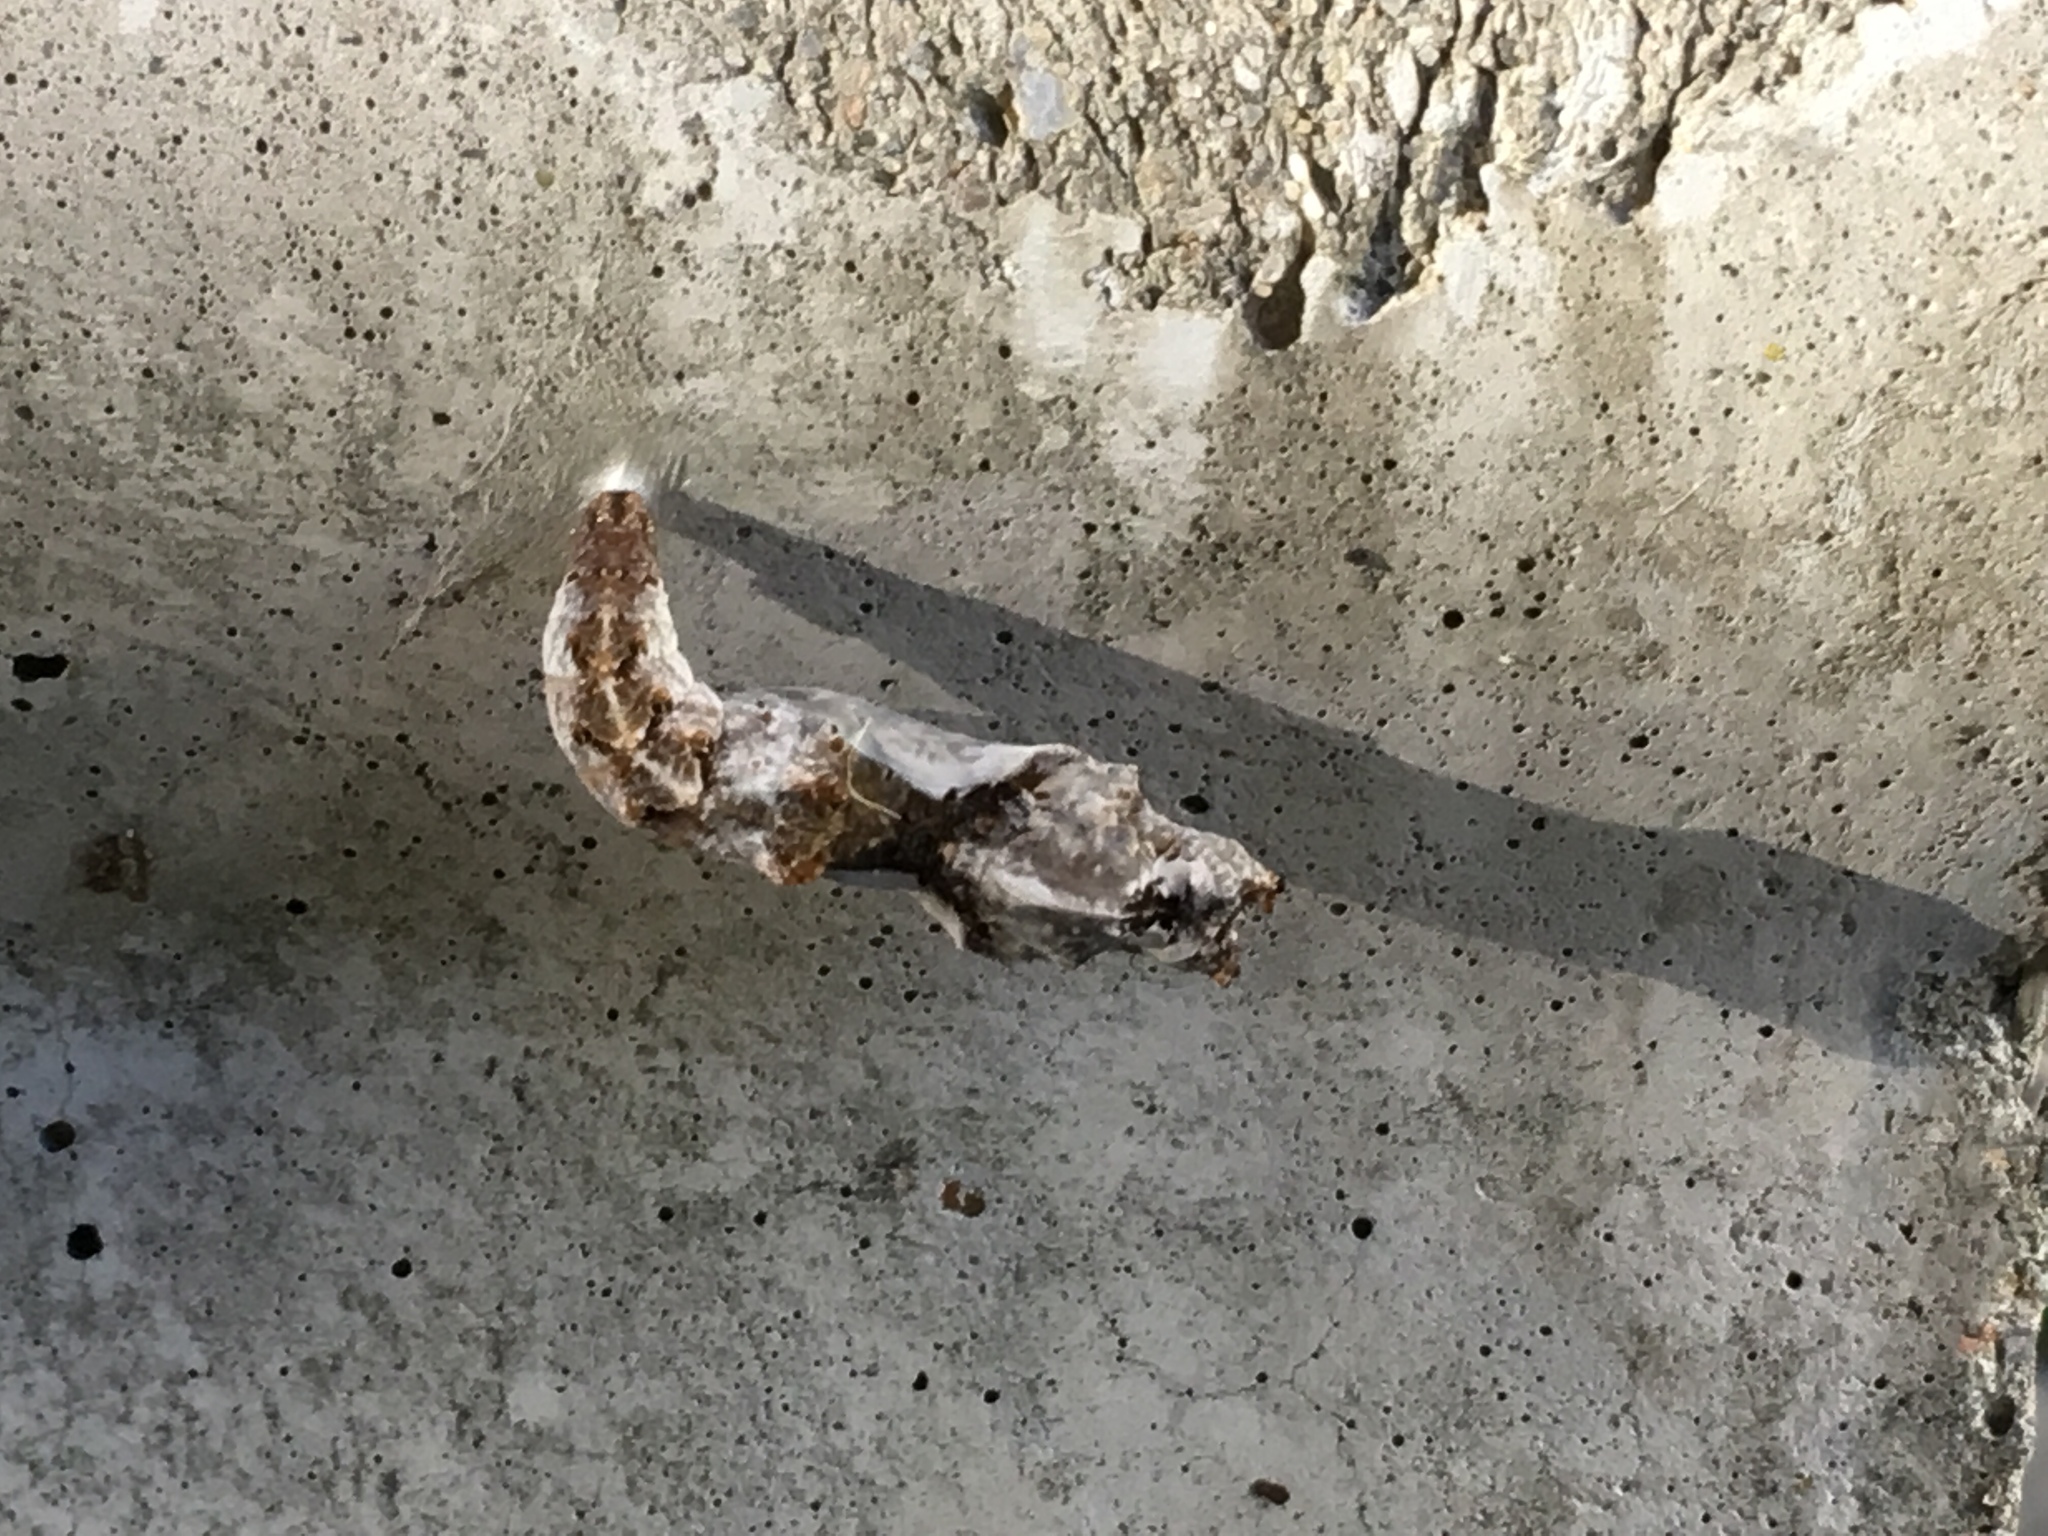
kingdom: Animalia
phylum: Arthropoda
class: Insecta
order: Lepidoptera
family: Nymphalidae
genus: Dione
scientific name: Dione vanillae
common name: Gulf fritillary
